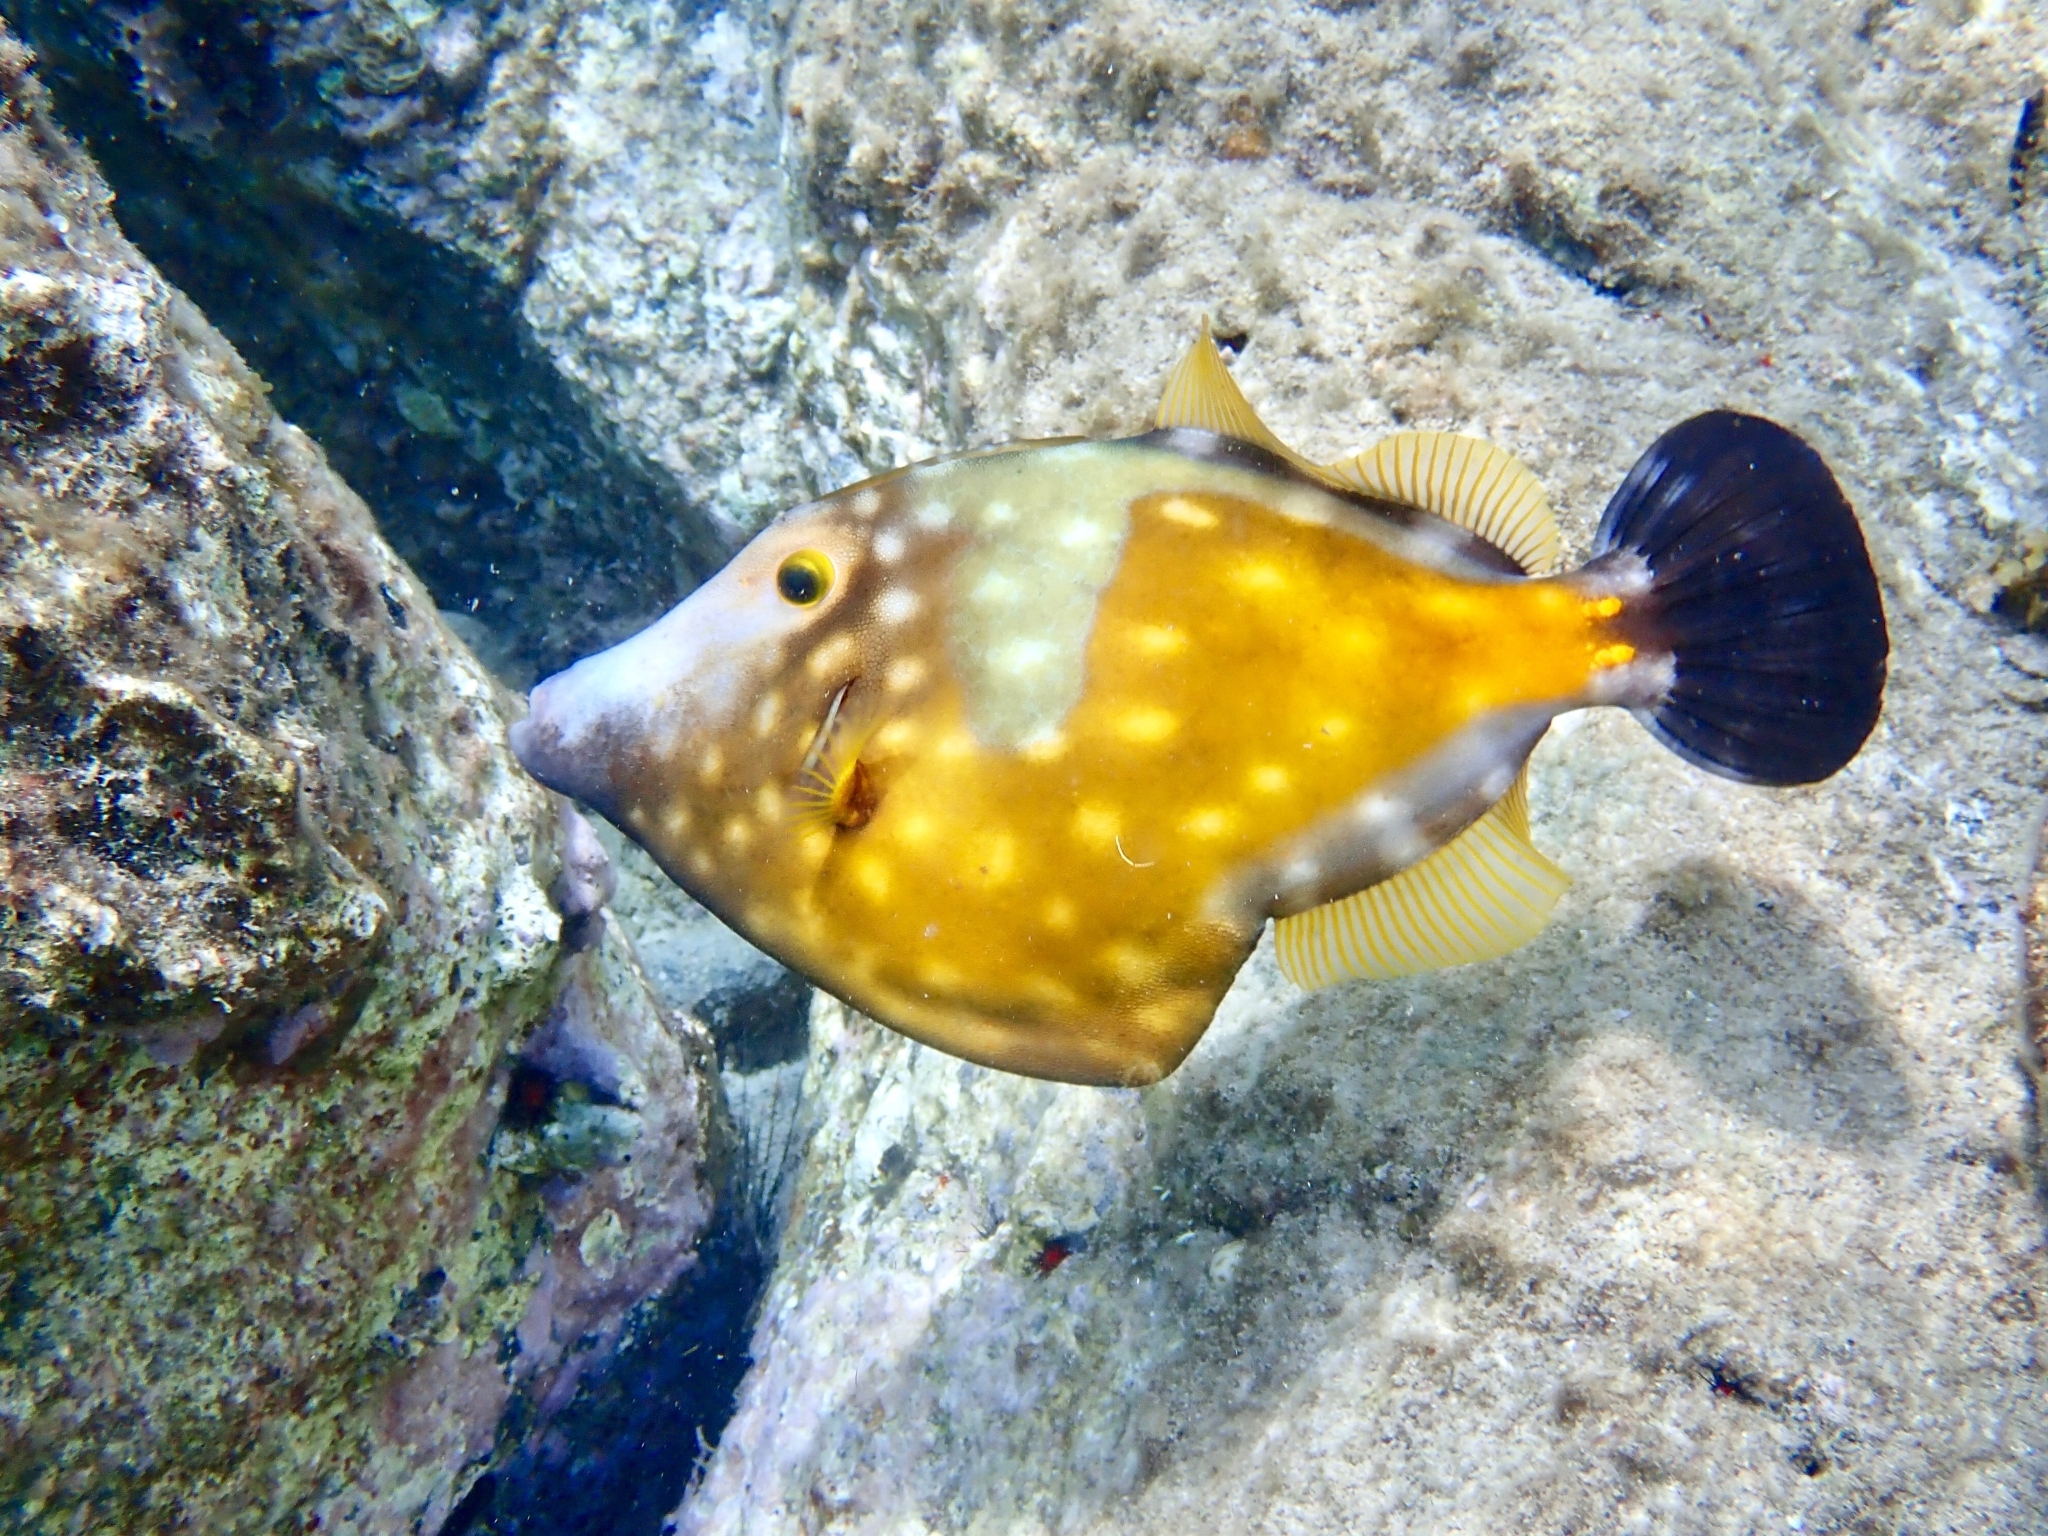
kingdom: Animalia
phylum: Chordata
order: Tetraodontiformes
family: Monacanthidae
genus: Cantherhines
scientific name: Cantherhines macrocerus
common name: Whitespotted filefish
